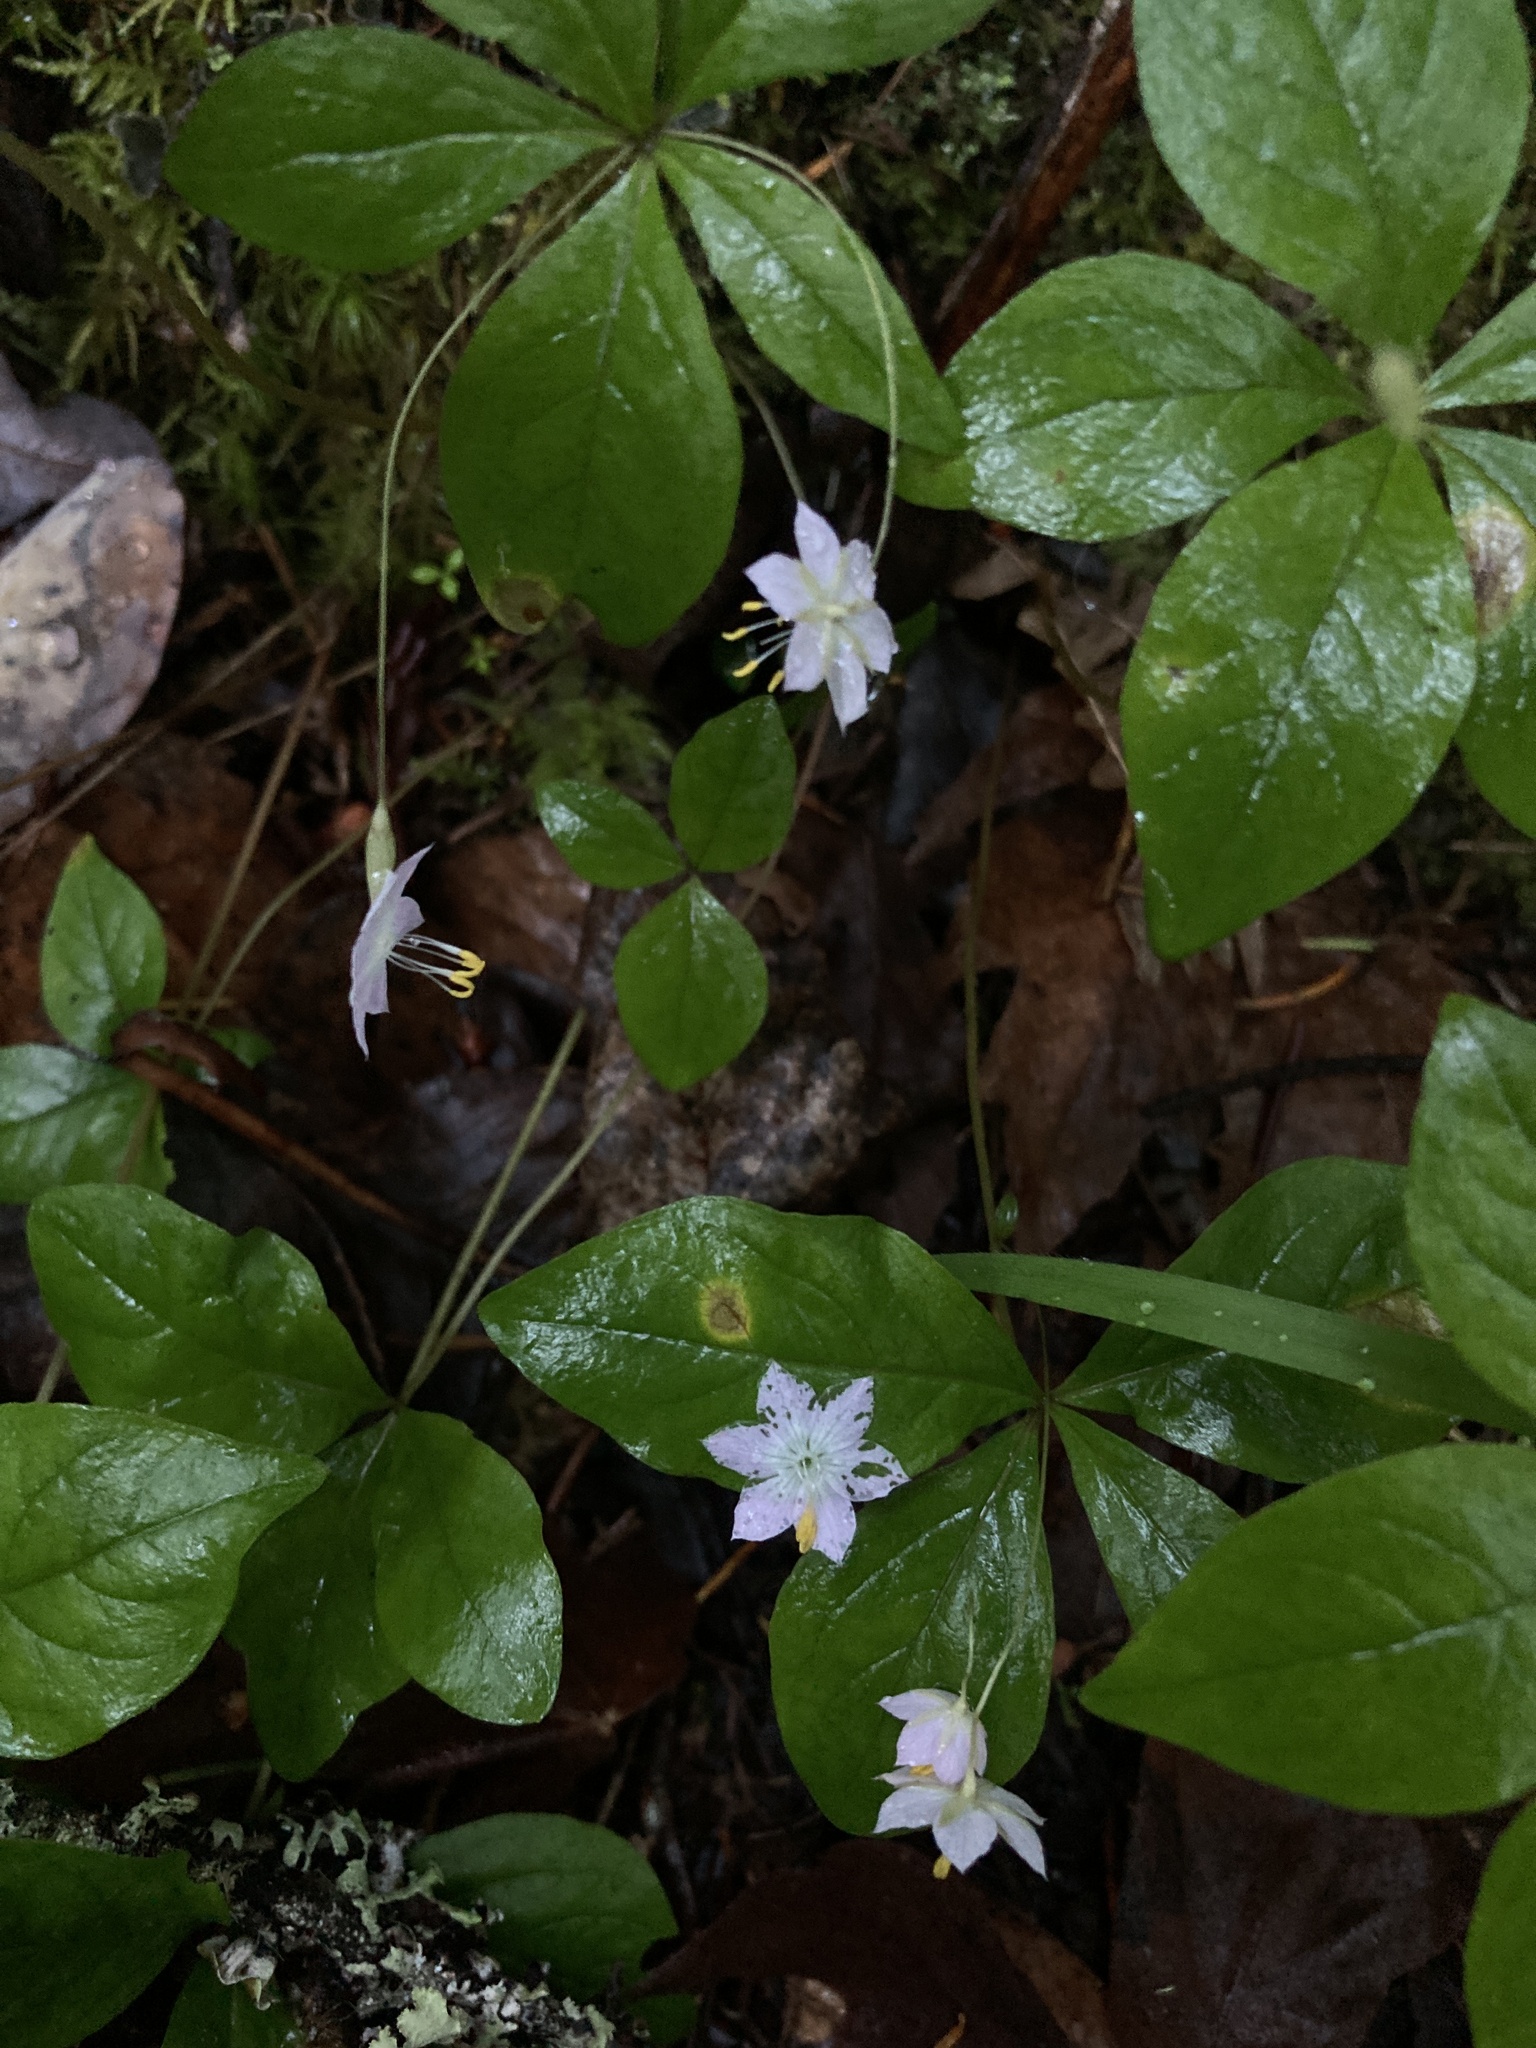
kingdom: Plantae
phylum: Tracheophyta
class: Magnoliopsida
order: Ericales
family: Primulaceae
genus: Lysimachia
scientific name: Lysimachia latifolia
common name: Pacific starflower
